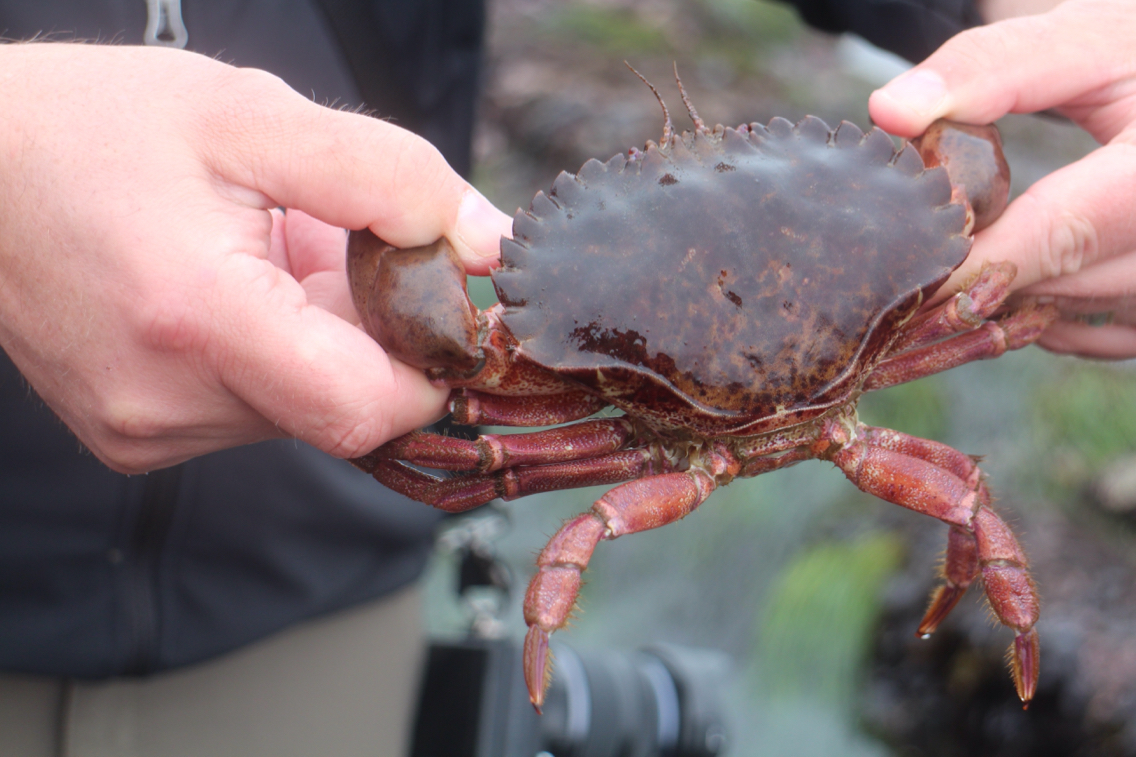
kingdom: Animalia
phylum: Arthropoda
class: Malacostraca
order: Decapoda
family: Cancridae
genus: Romaleon
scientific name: Romaleon antennarium
